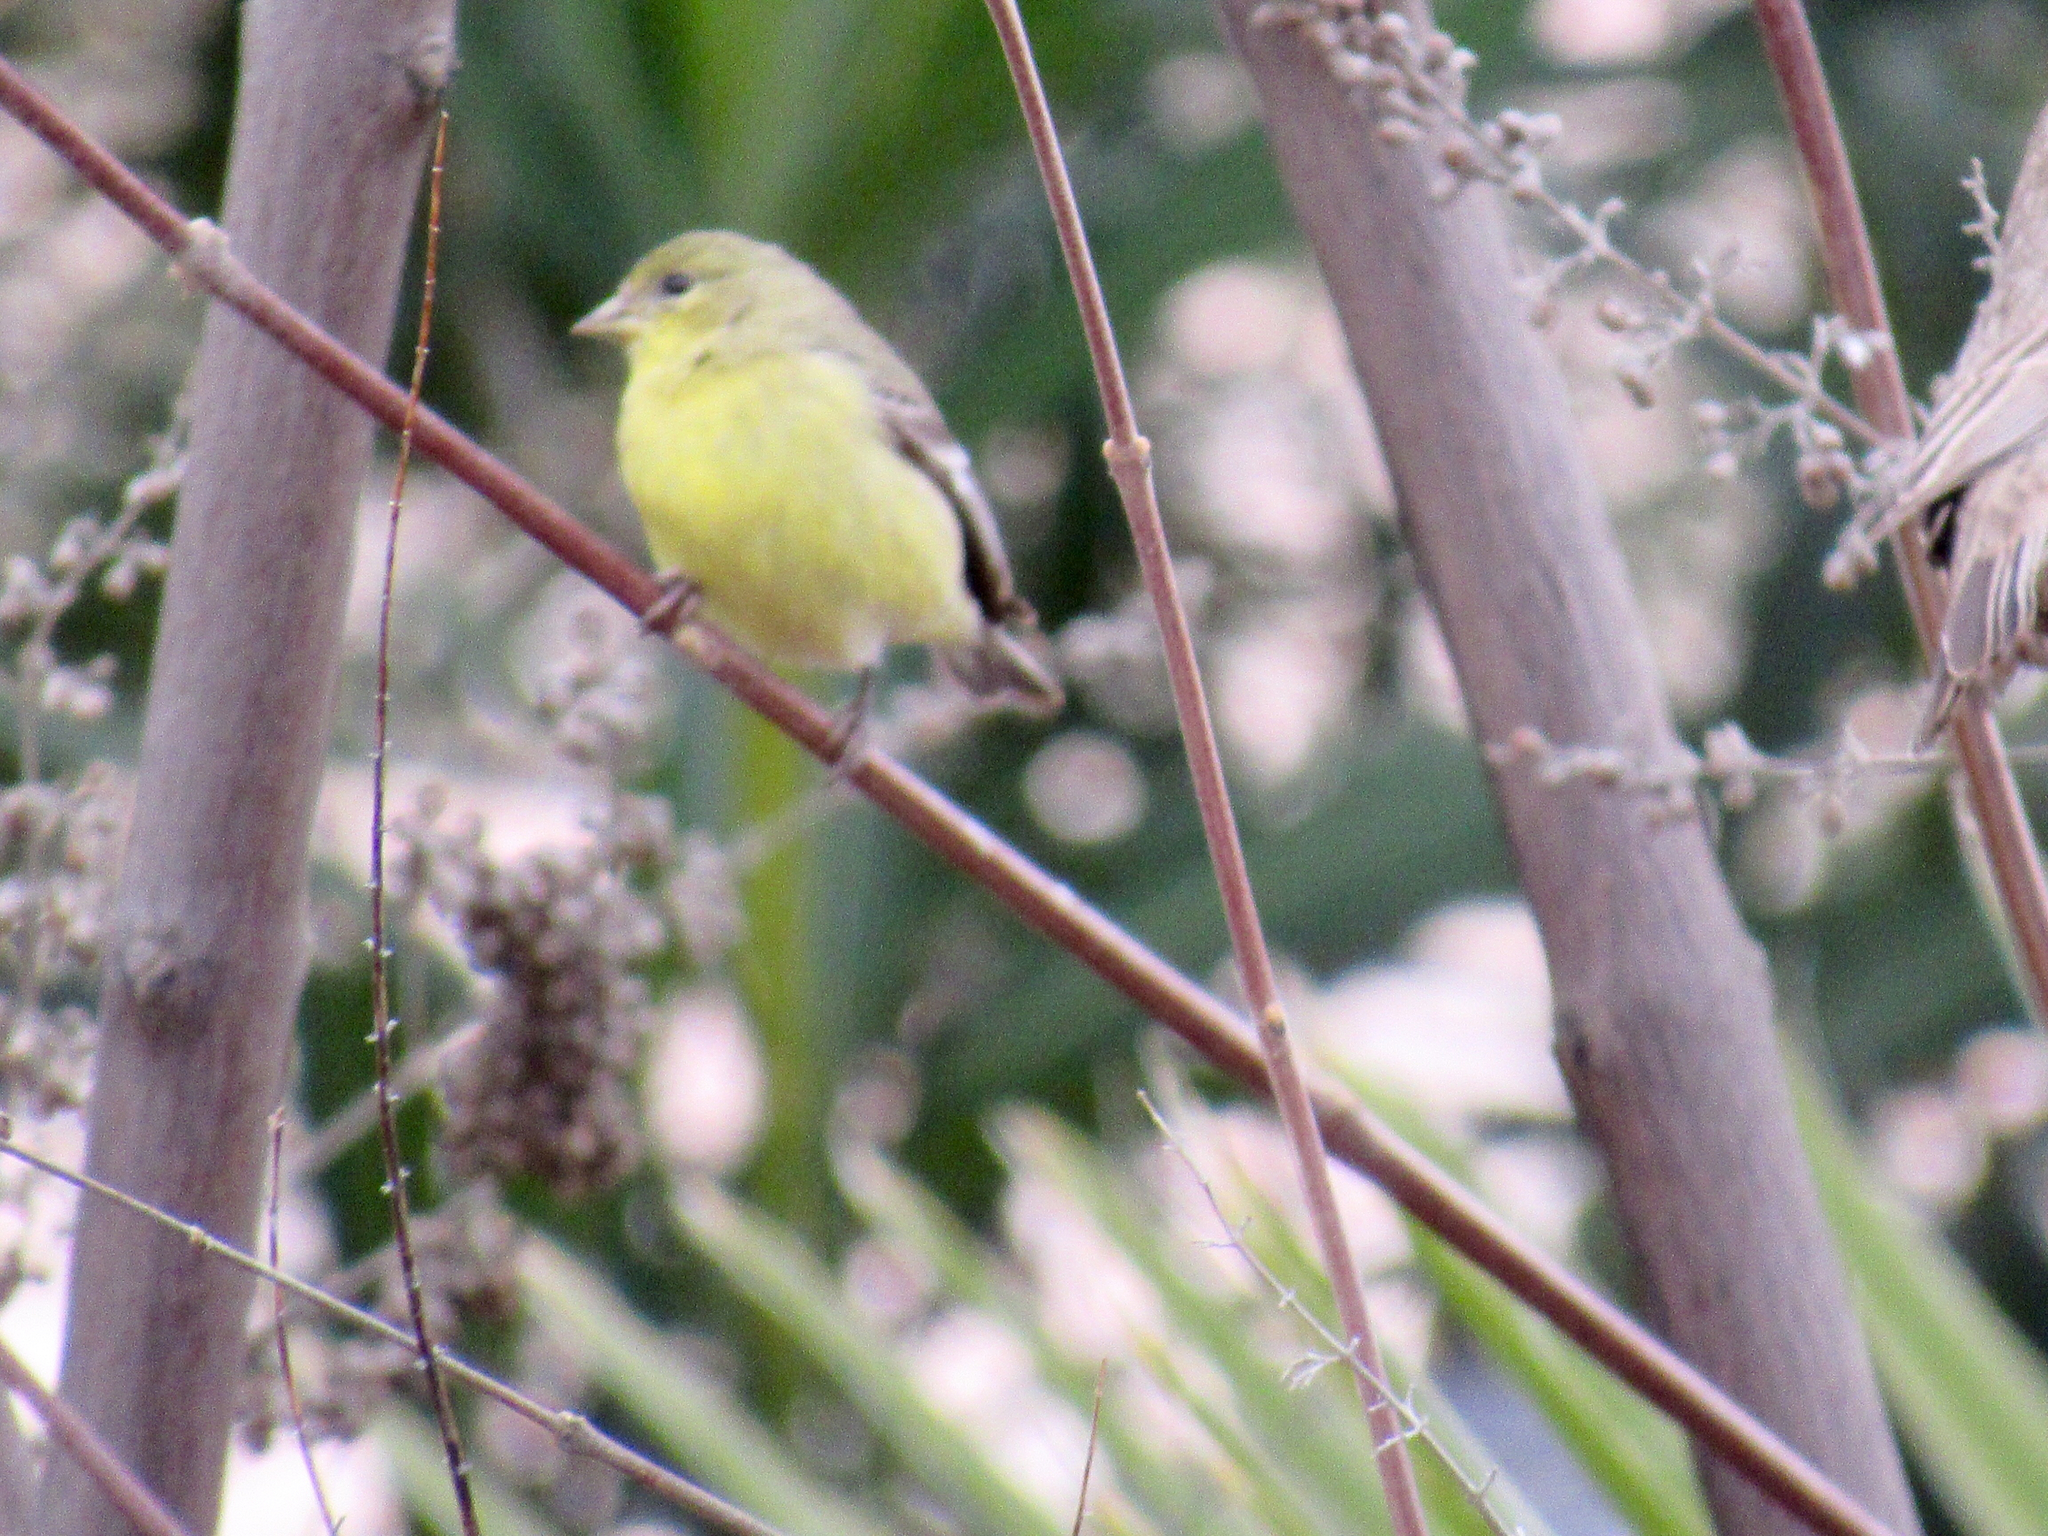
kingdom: Animalia
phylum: Chordata
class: Aves
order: Passeriformes
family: Fringillidae
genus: Spinus
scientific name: Spinus psaltria
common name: Lesser goldfinch
